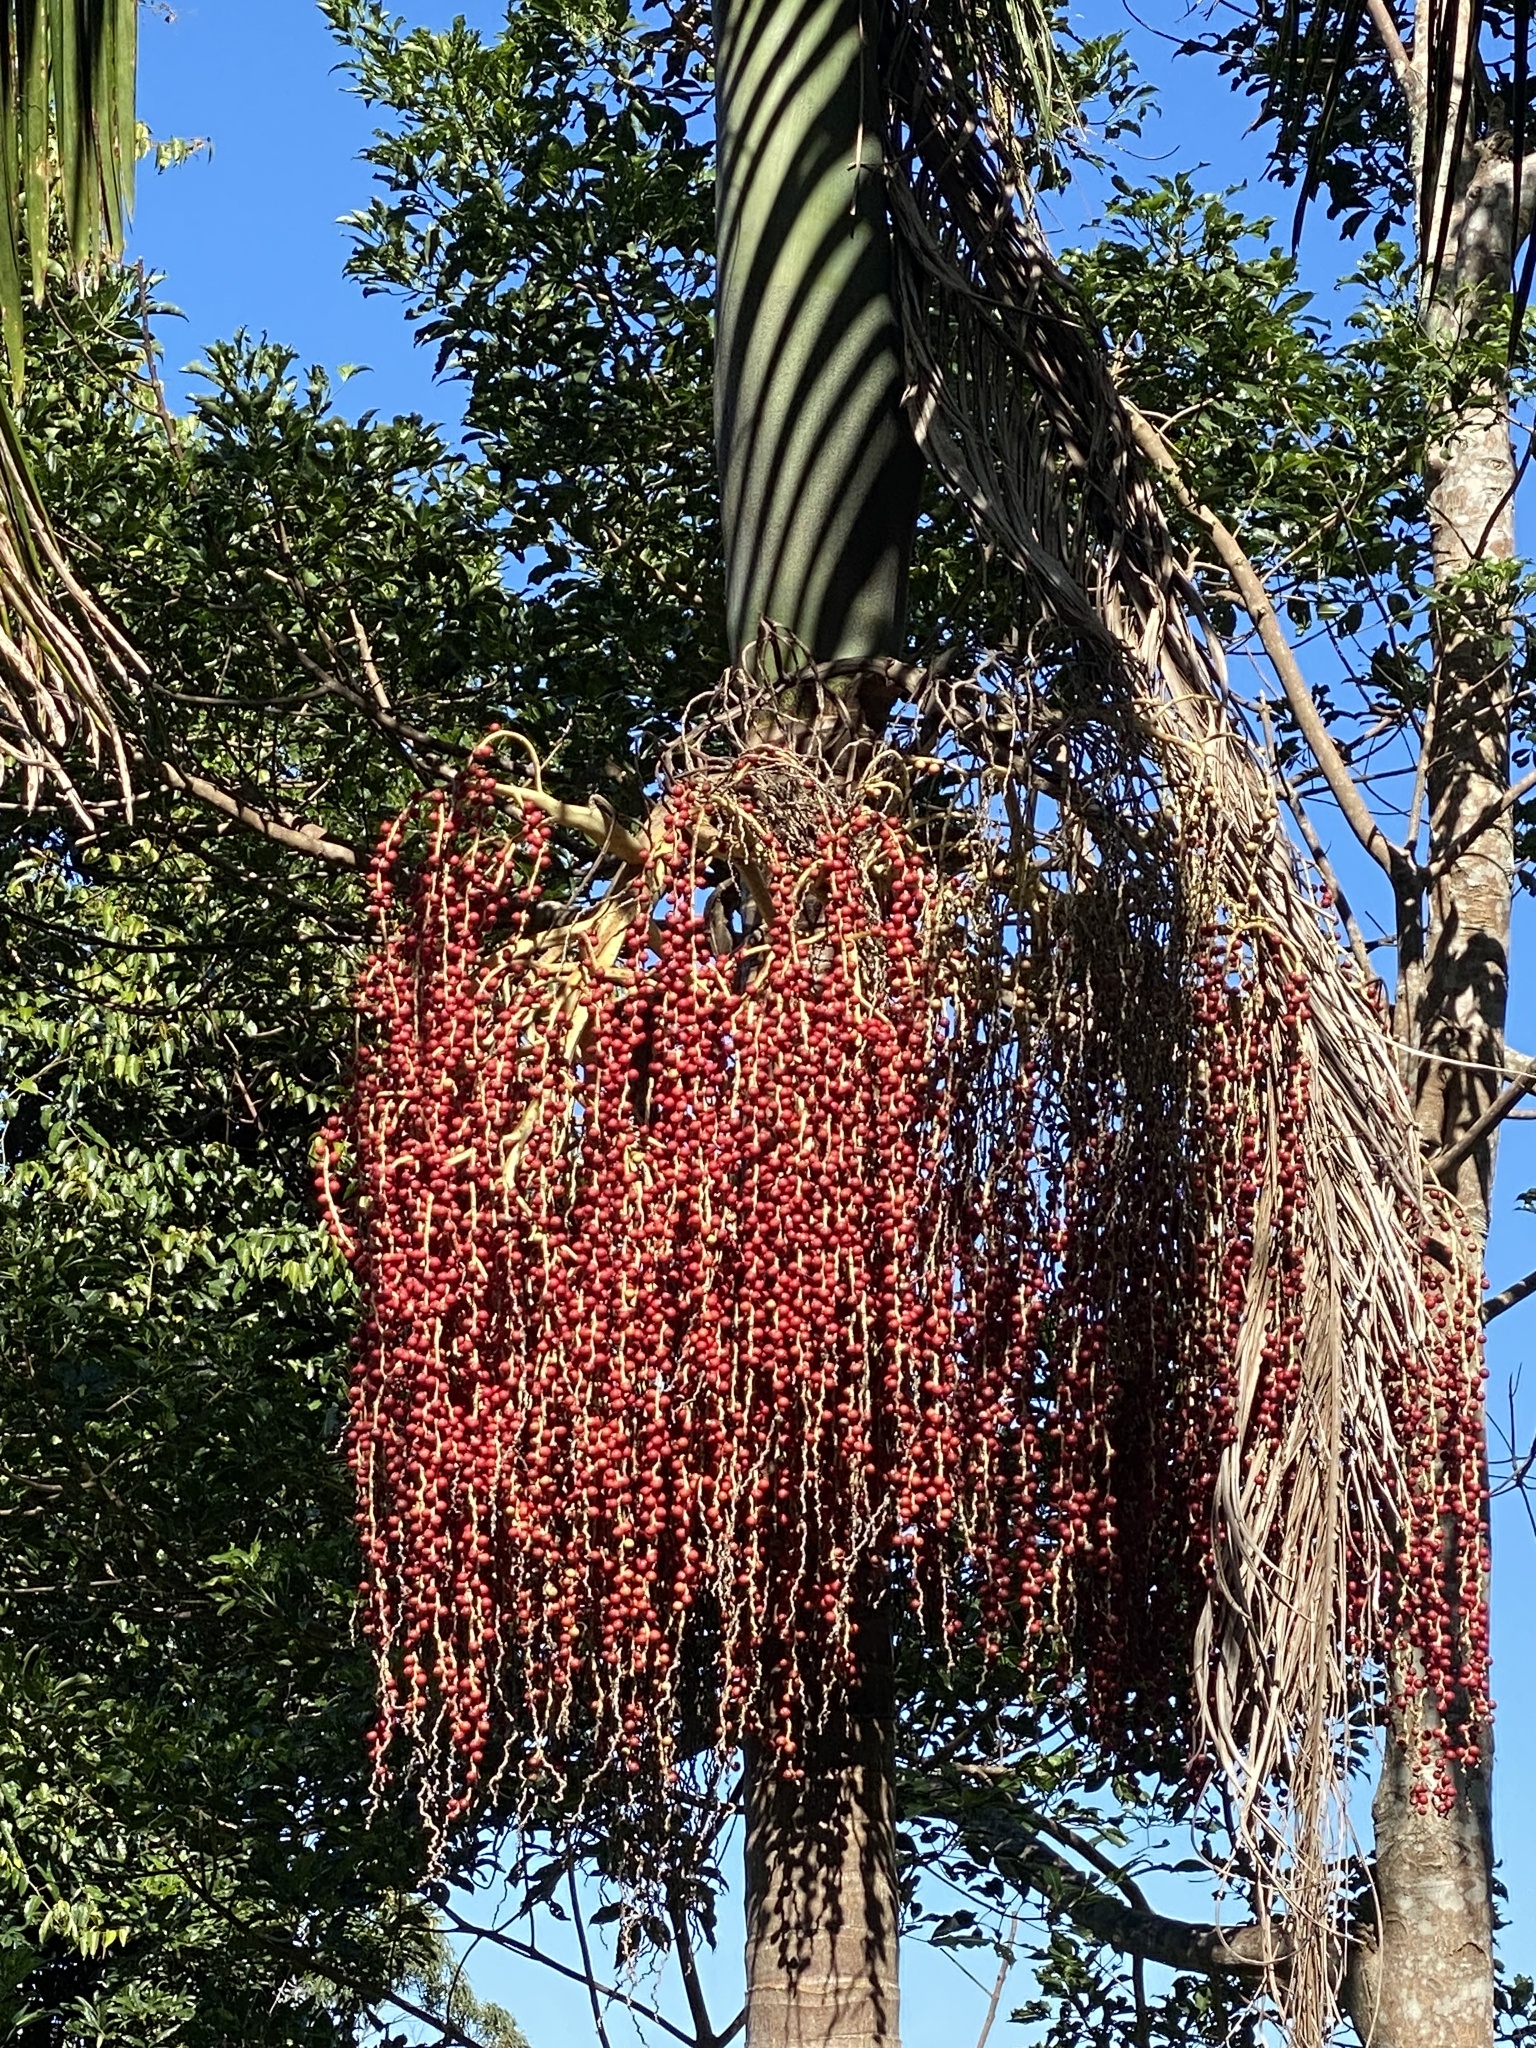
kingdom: Plantae
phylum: Tracheophyta
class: Liliopsida
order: Arecales
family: Arecaceae
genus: Archontophoenix
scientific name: Archontophoenix cunninghamiana
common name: Piccabeen bangalow palm
